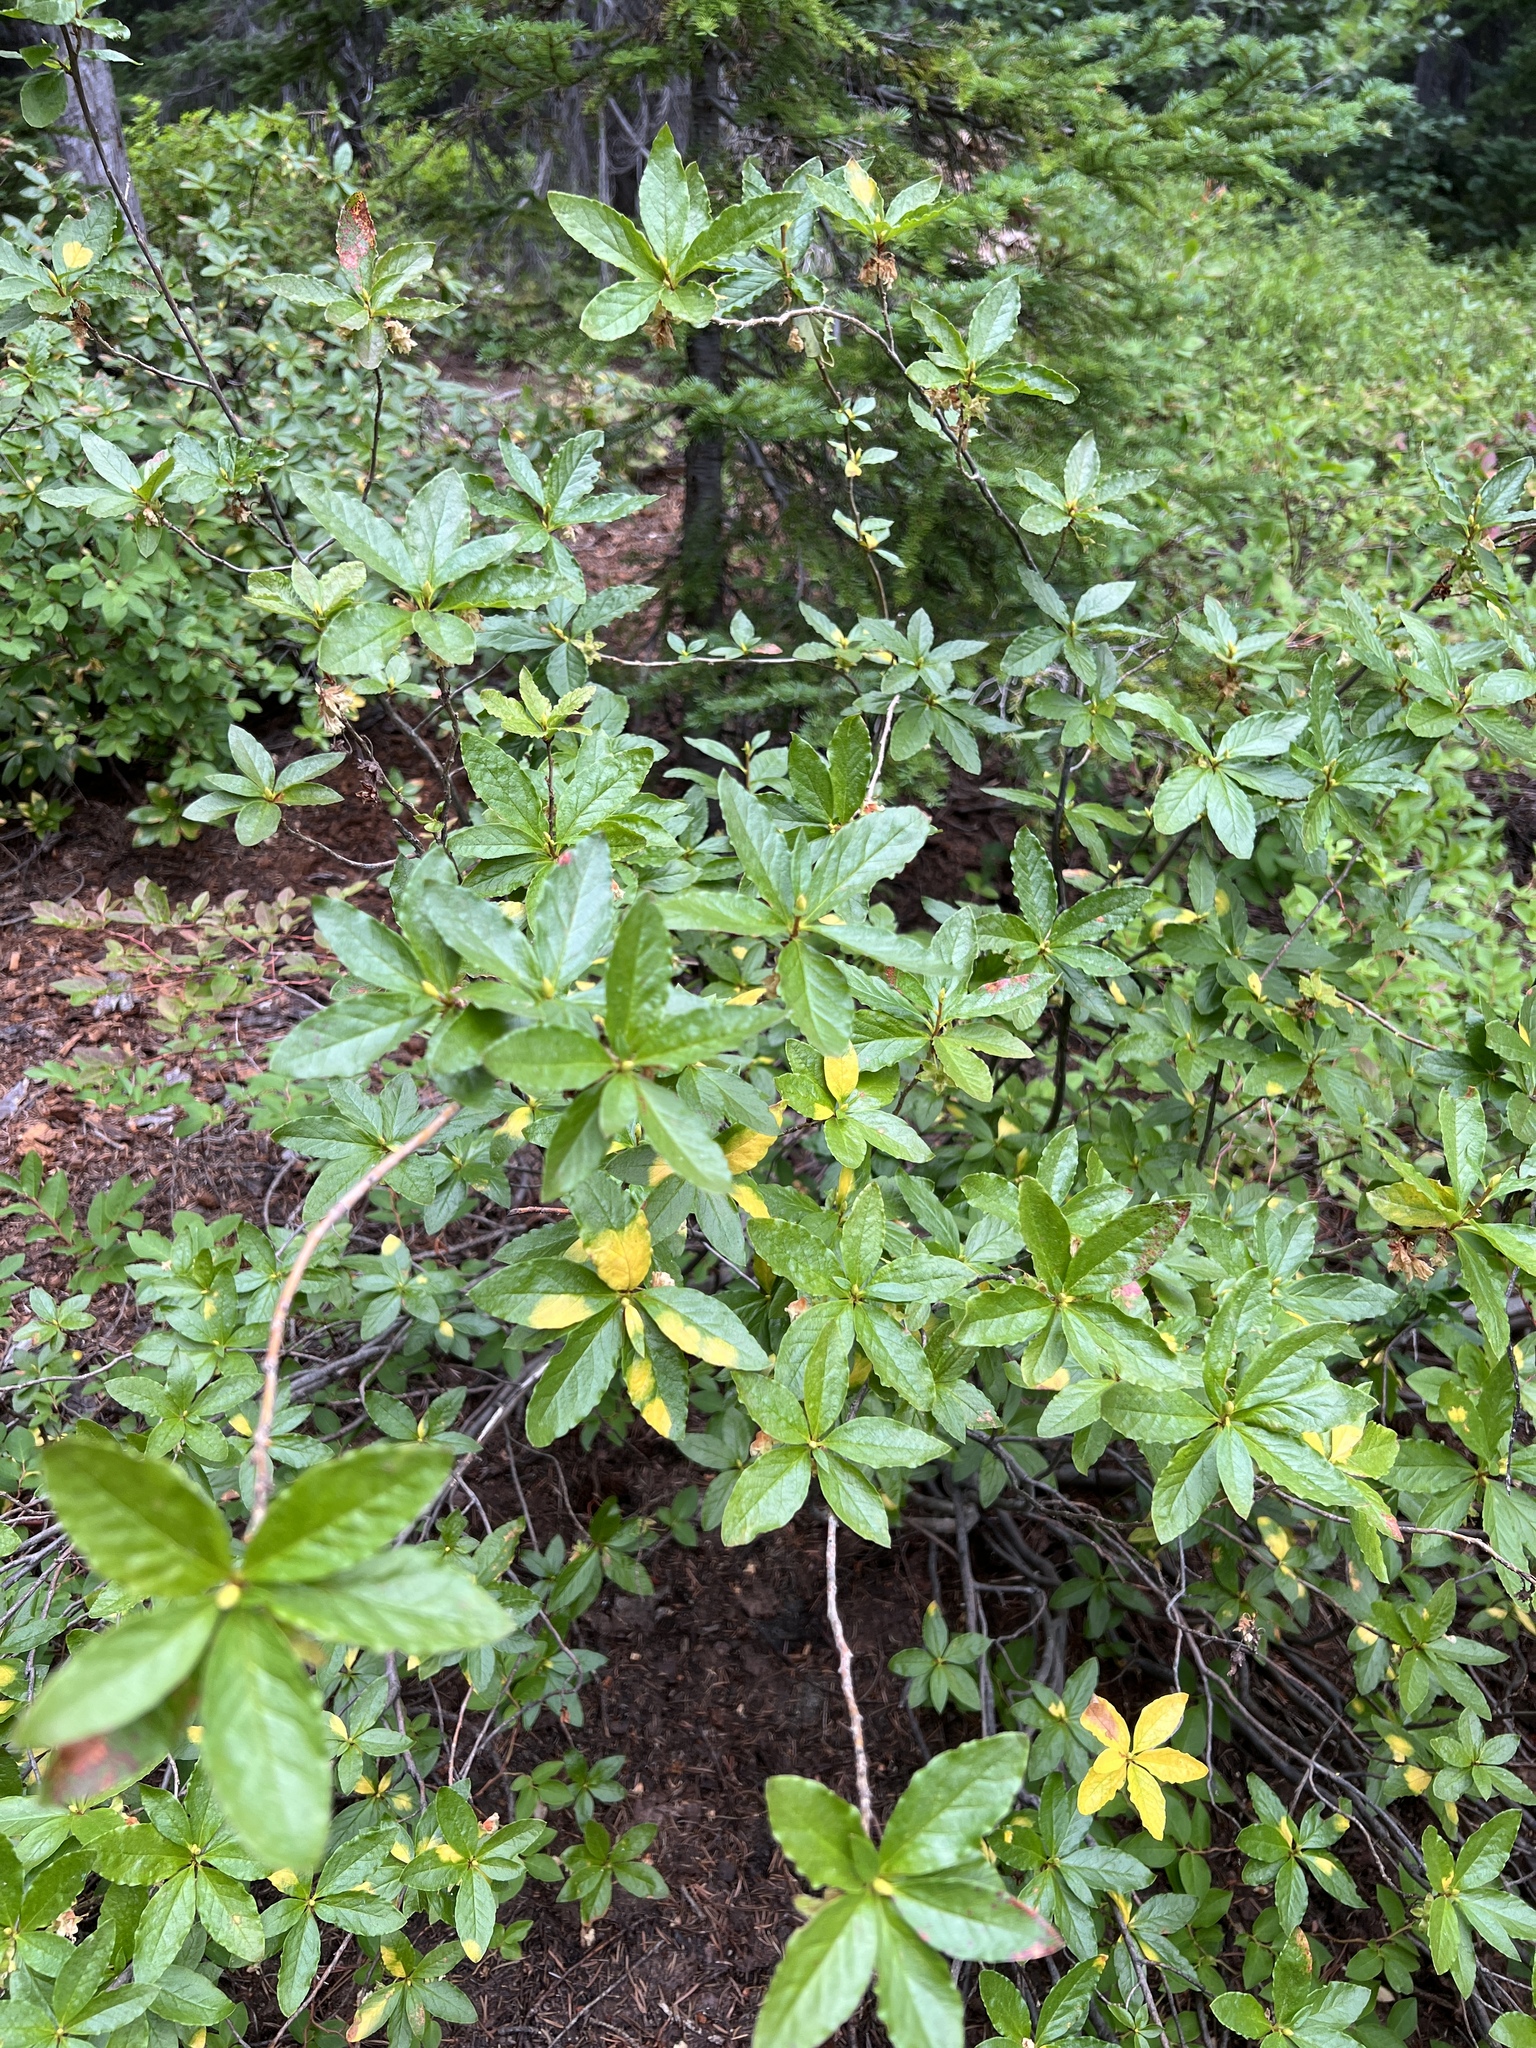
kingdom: Plantae
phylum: Tracheophyta
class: Magnoliopsida
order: Ericales
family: Ericaceae
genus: Rhododendron
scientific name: Rhododendron albiflorum
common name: White rhododendron
